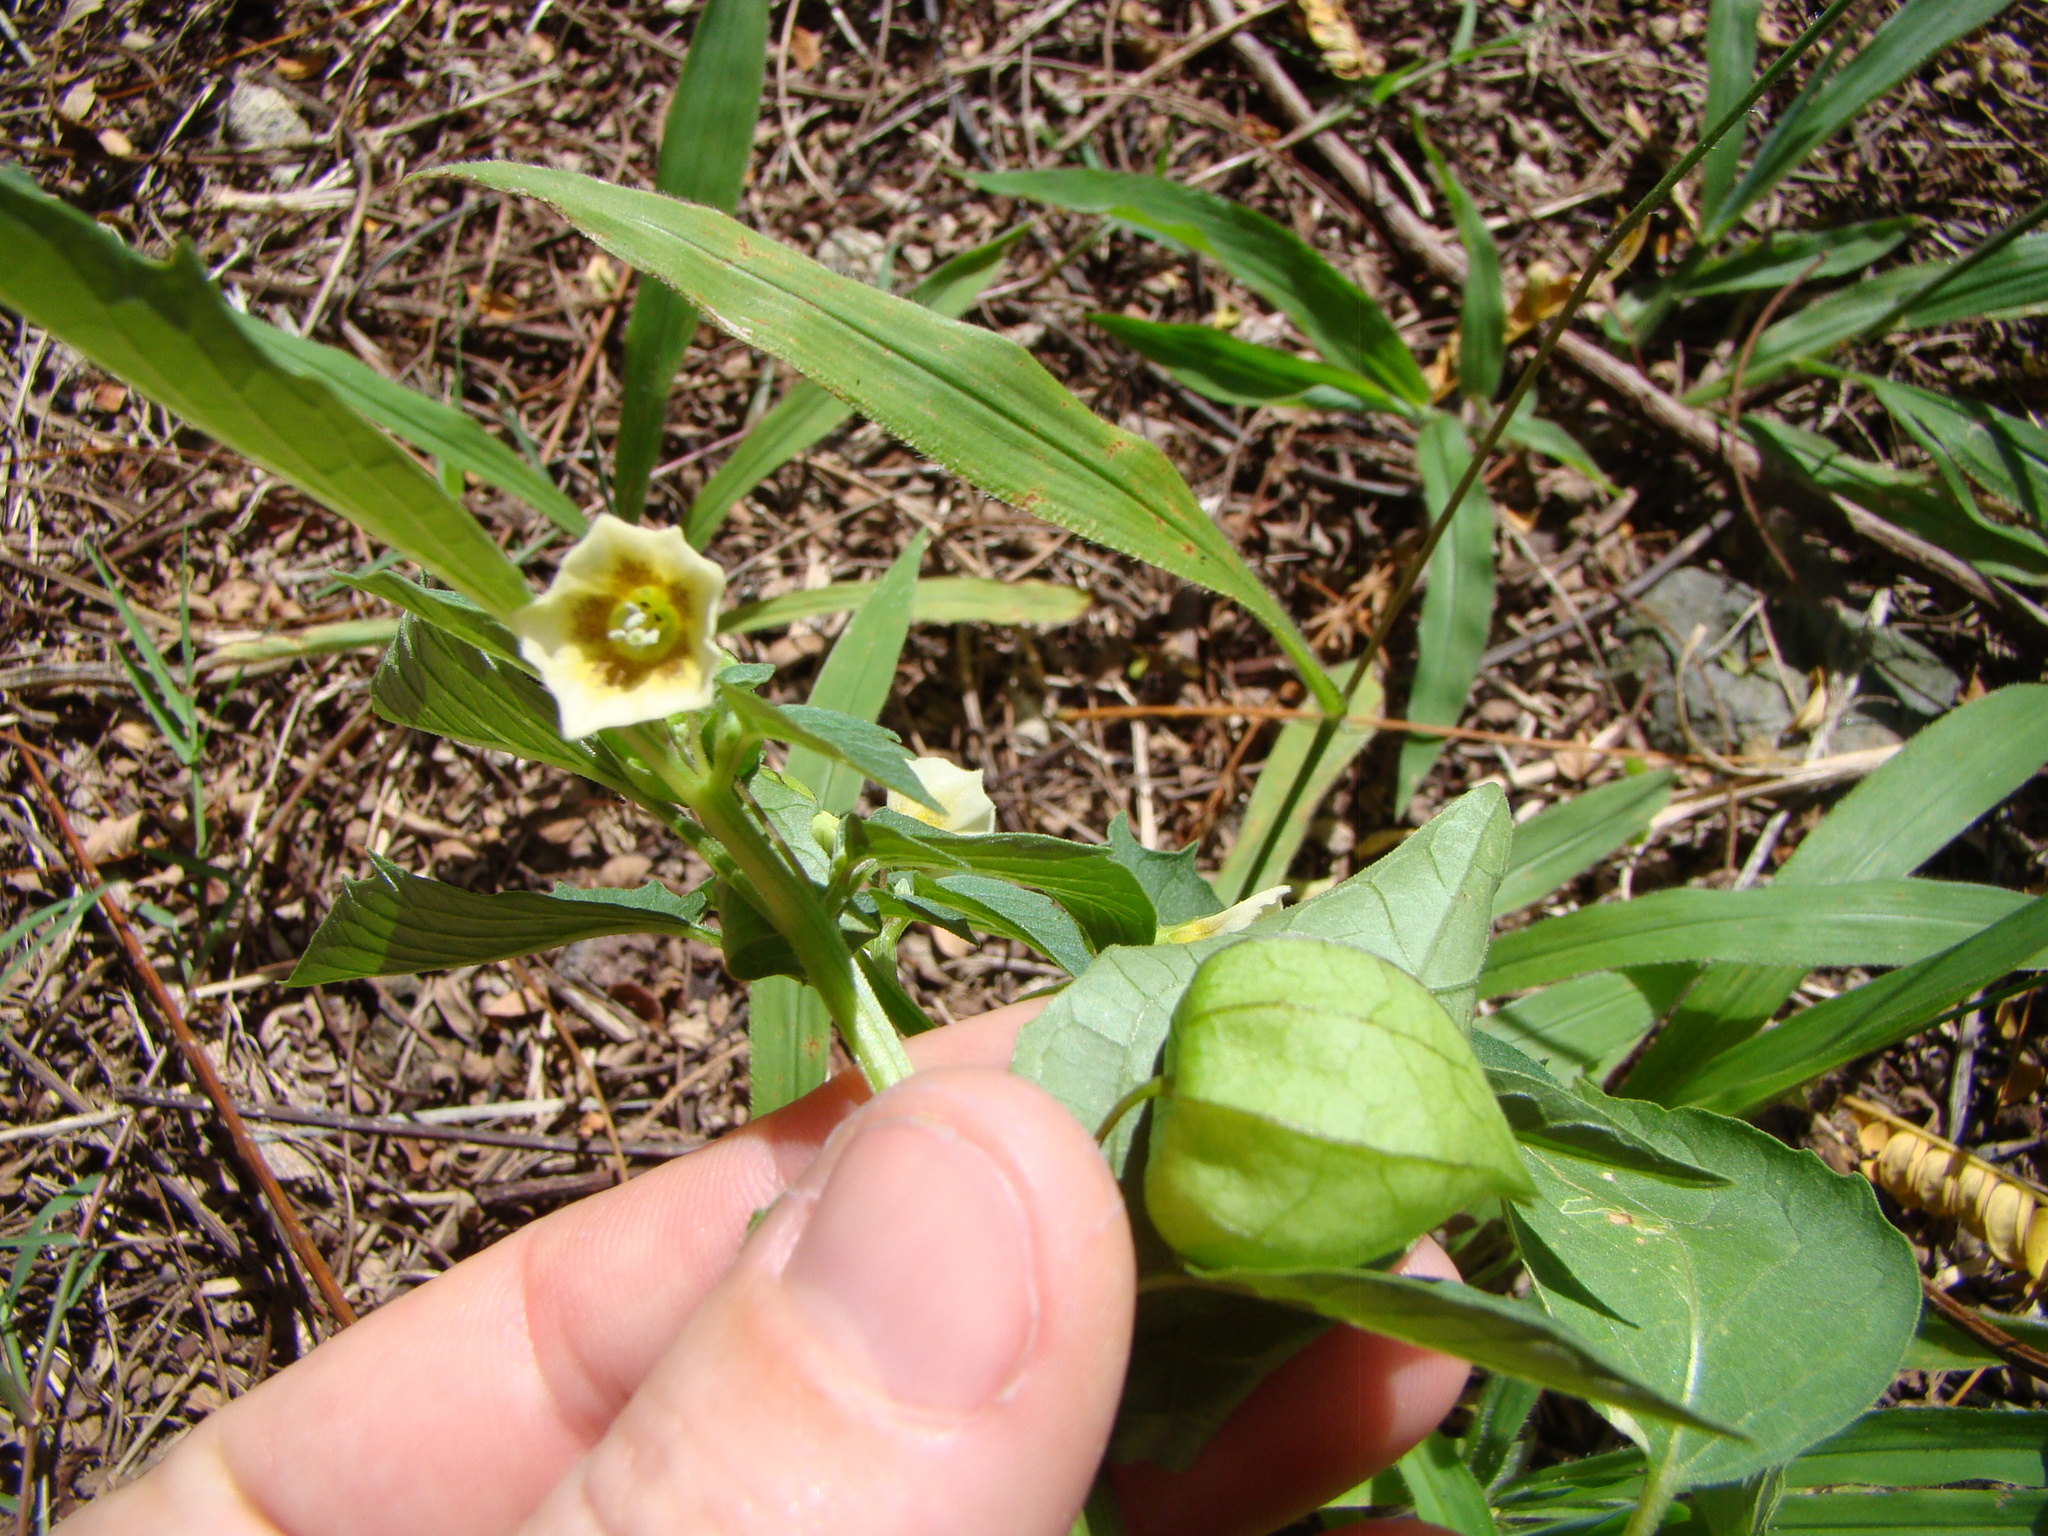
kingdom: Plantae
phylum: Tracheophyta
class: Magnoliopsida
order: Solanales
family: Solanaceae
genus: Physalis
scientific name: Physalis angulata
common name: Angular winter-cherry
